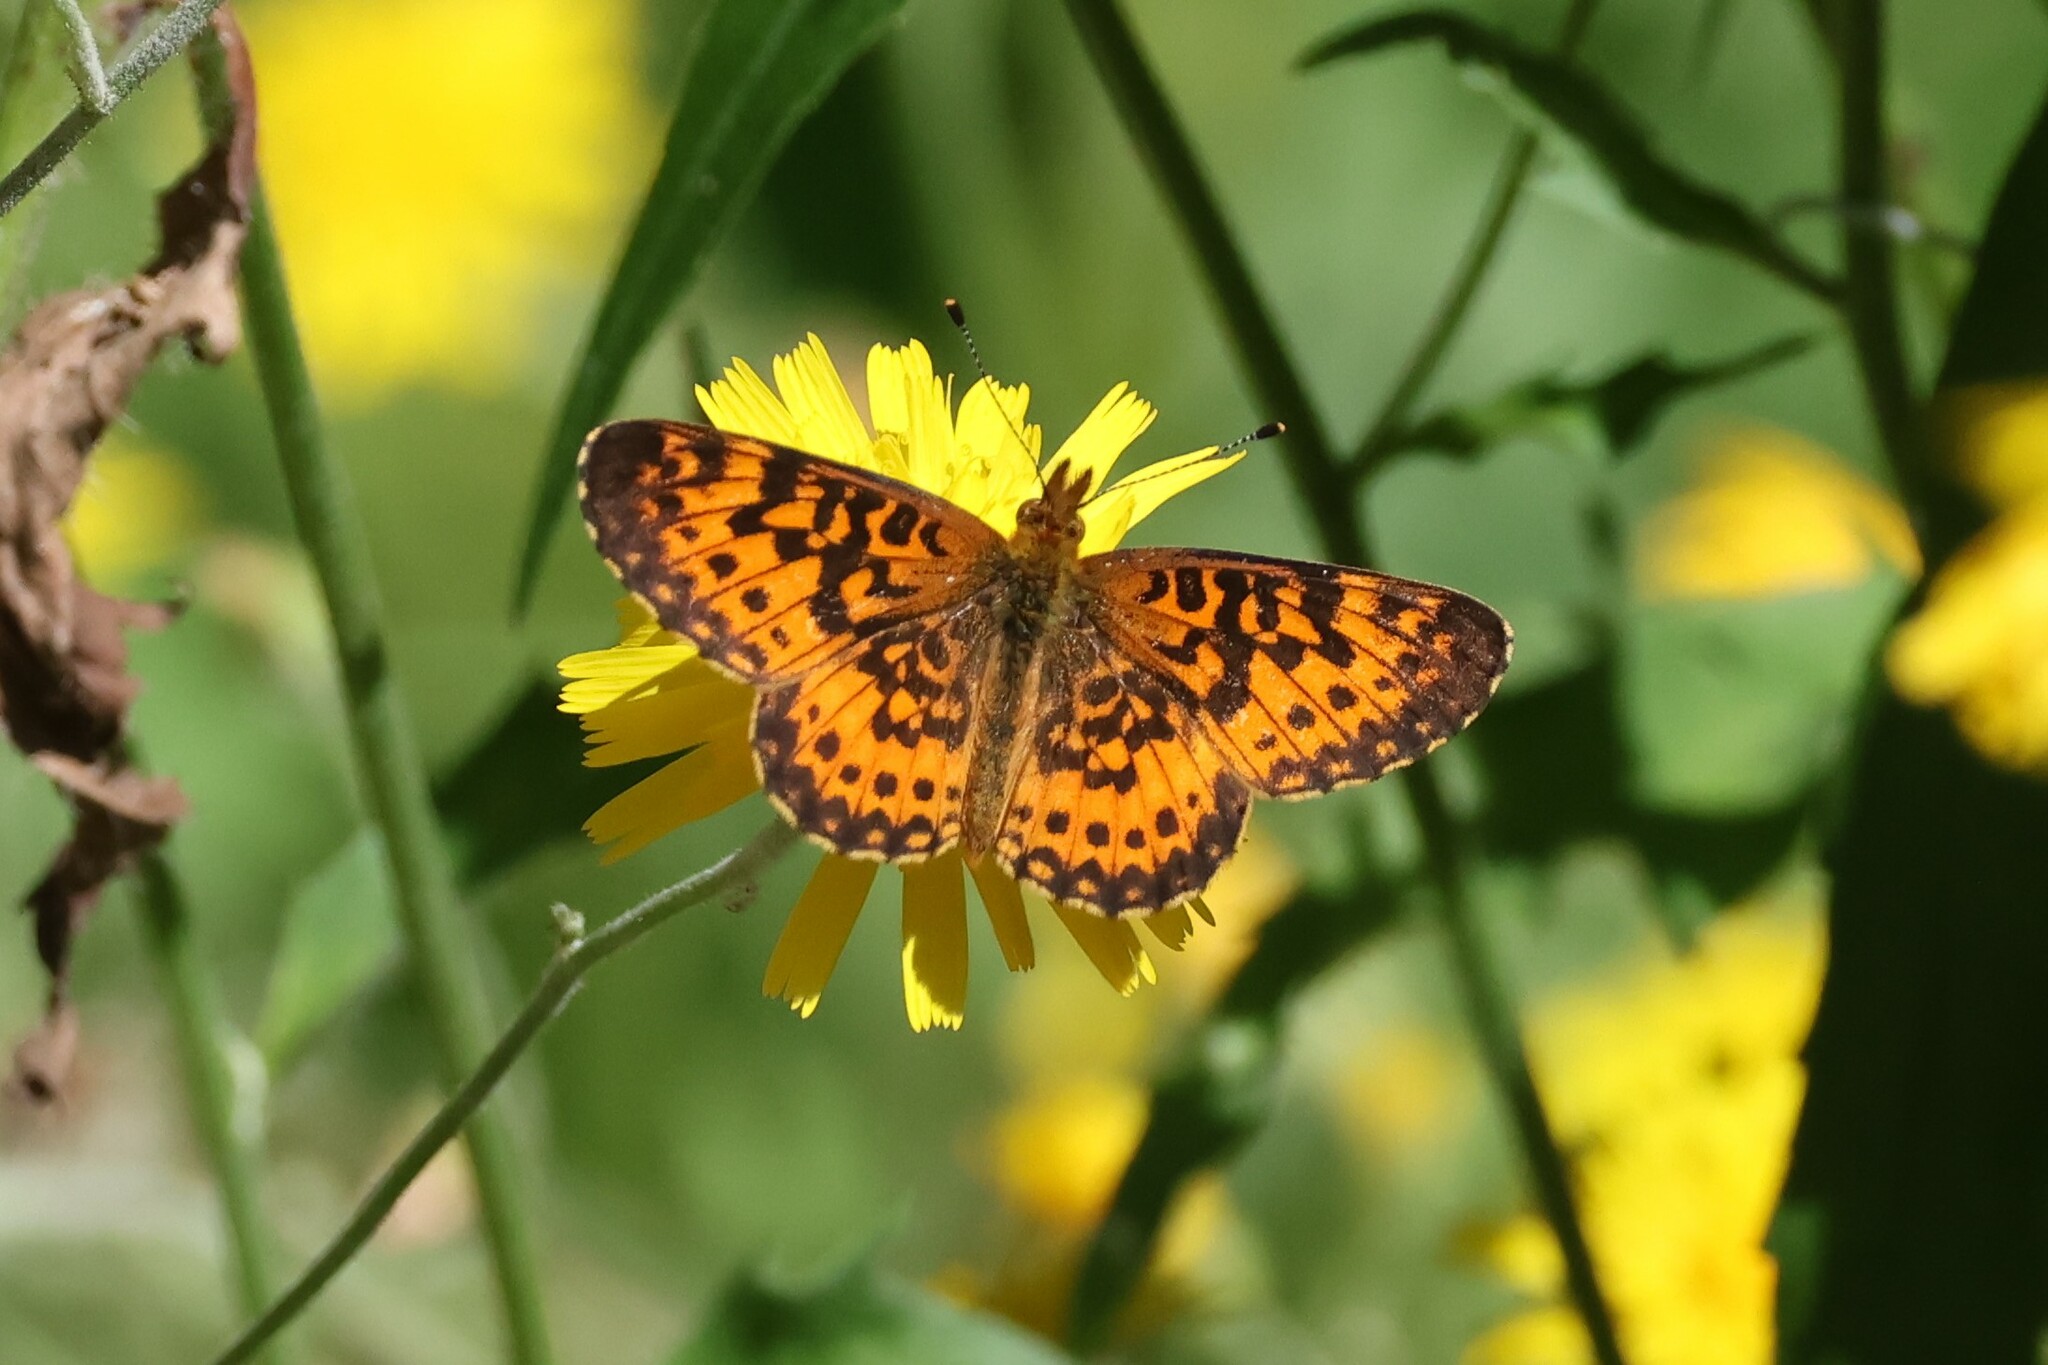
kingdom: Animalia
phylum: Arthropoda
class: Insecta
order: Lepidoptera
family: Nymphalidae
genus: Boloria
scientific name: Boloria
